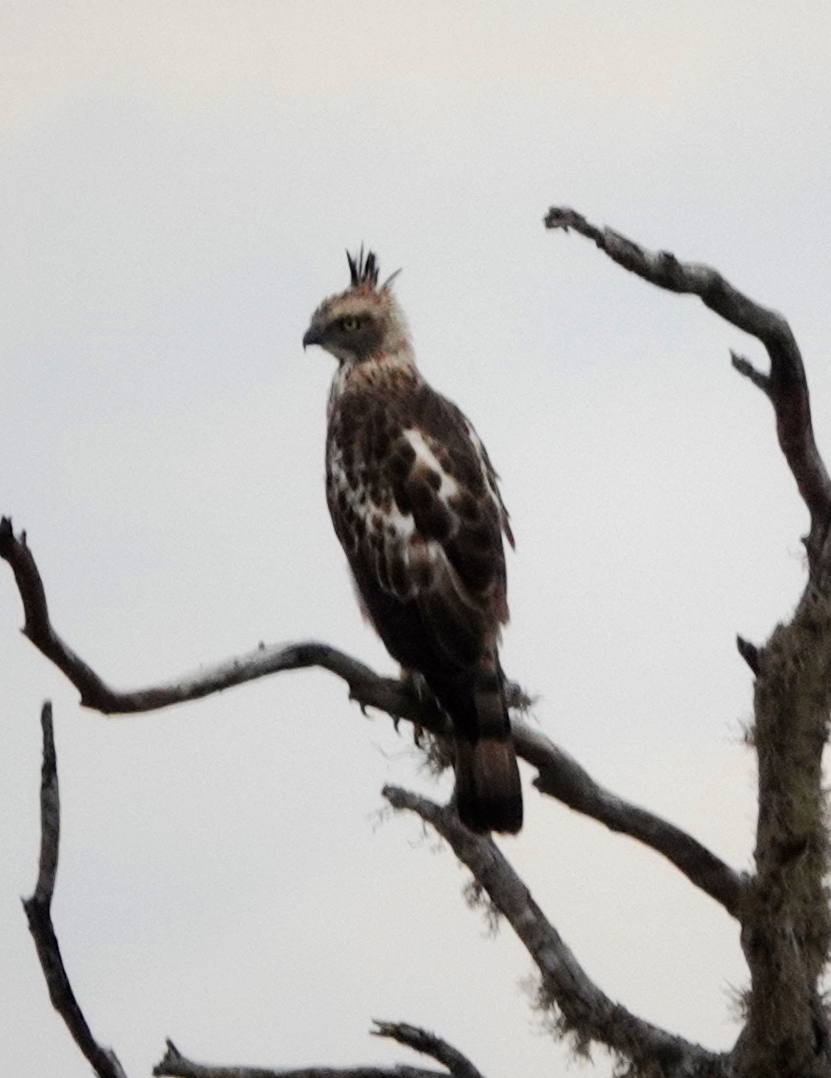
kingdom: Animalia
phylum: Chordata
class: Aves
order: Accipitriformes
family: Accipitridae
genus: Nisaetus
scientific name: Nisaetus cirrhatus
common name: Changeable hawk-eagle
